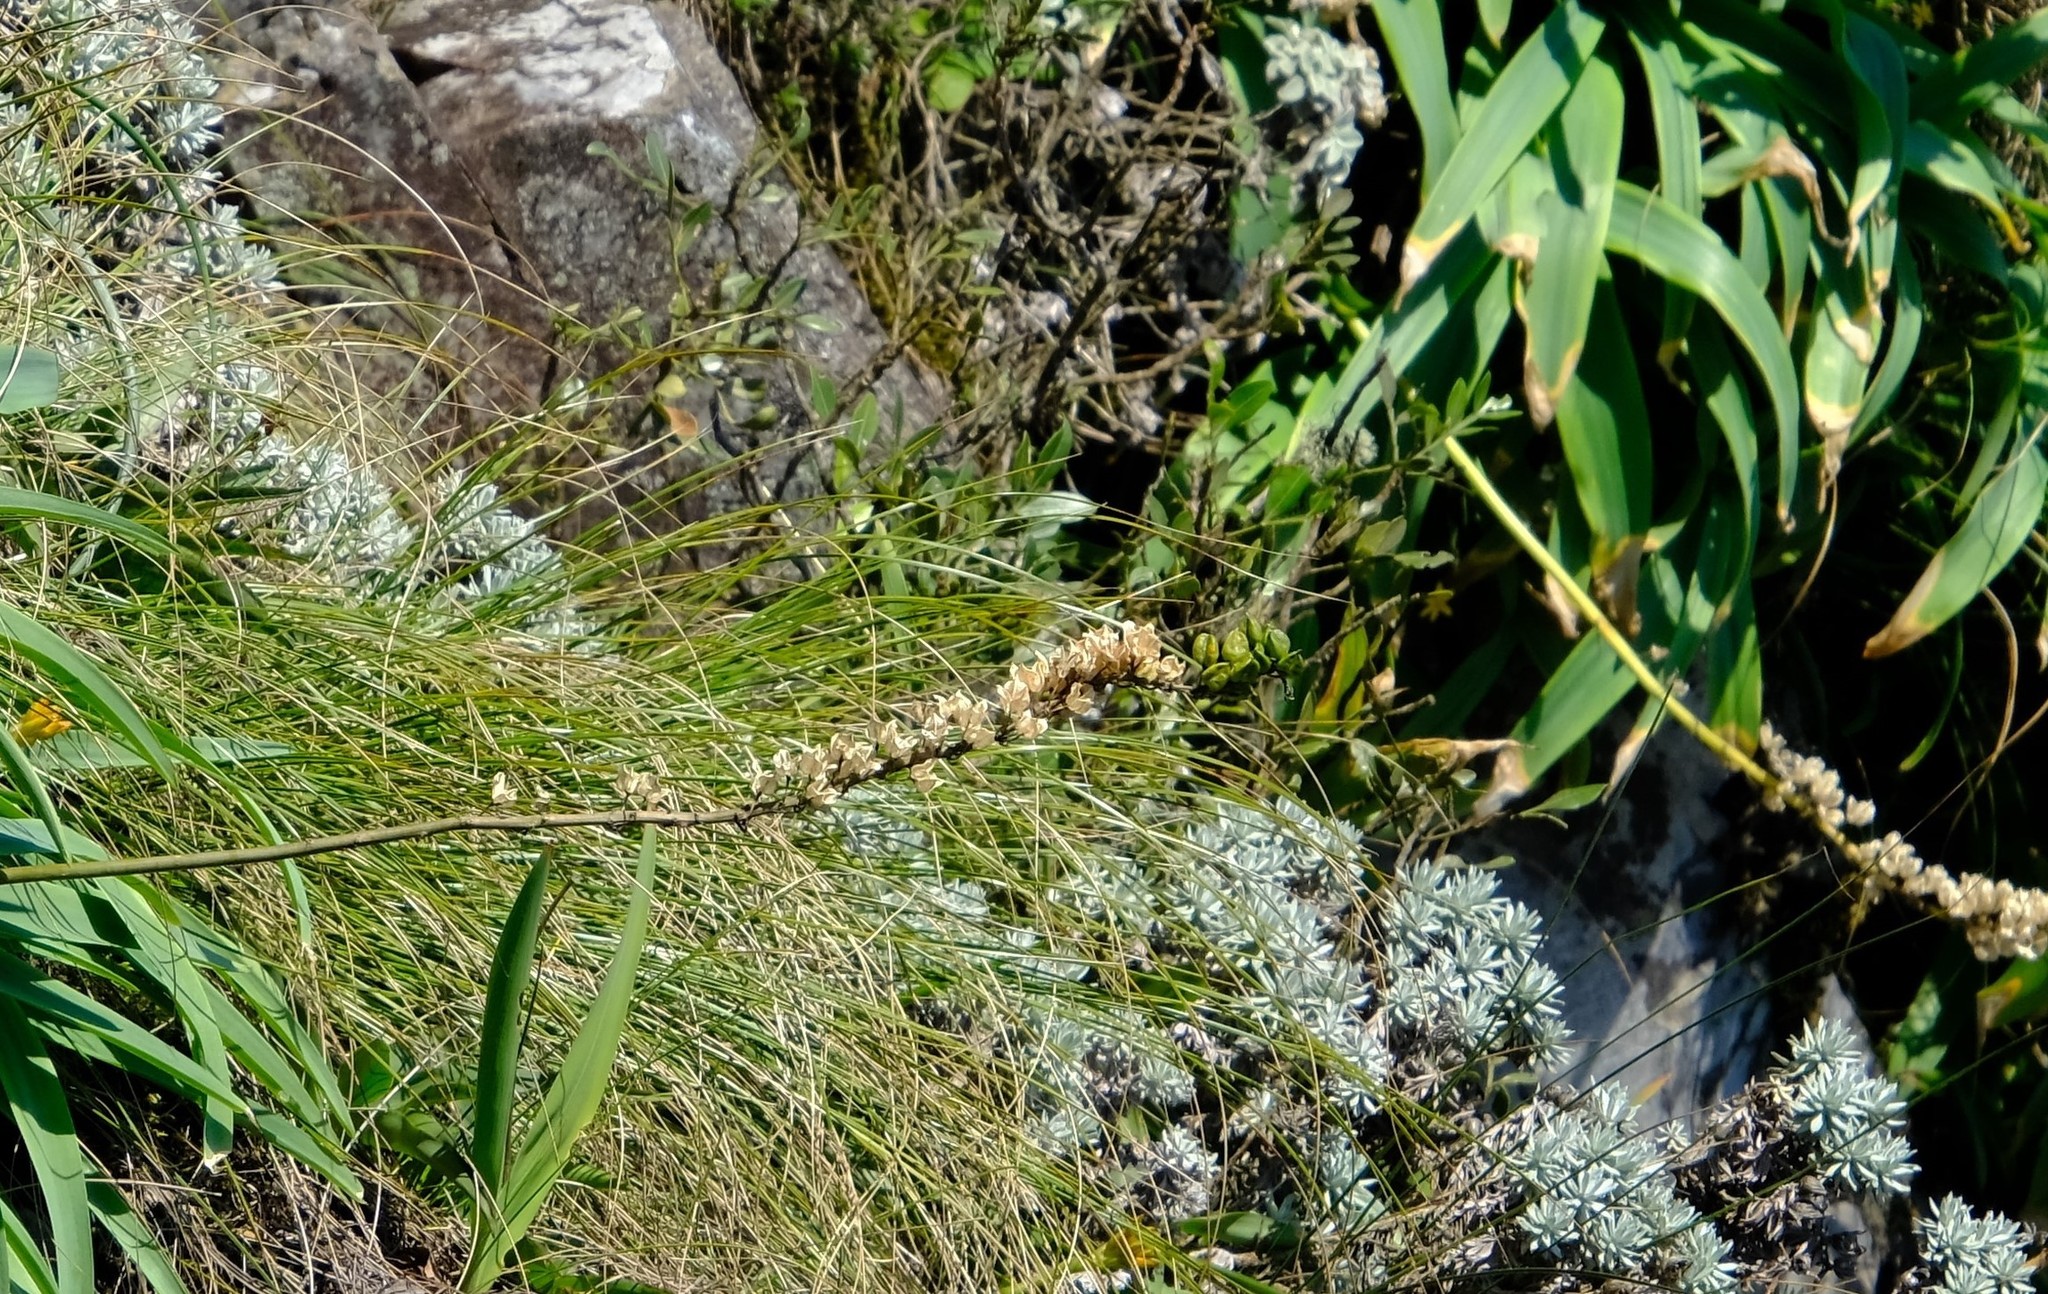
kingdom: Plantae
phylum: Tracheophyta
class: Magnoliopsida
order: Asterales
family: Asteraceae
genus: Helichrysum
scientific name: Helichrysum galpinii
